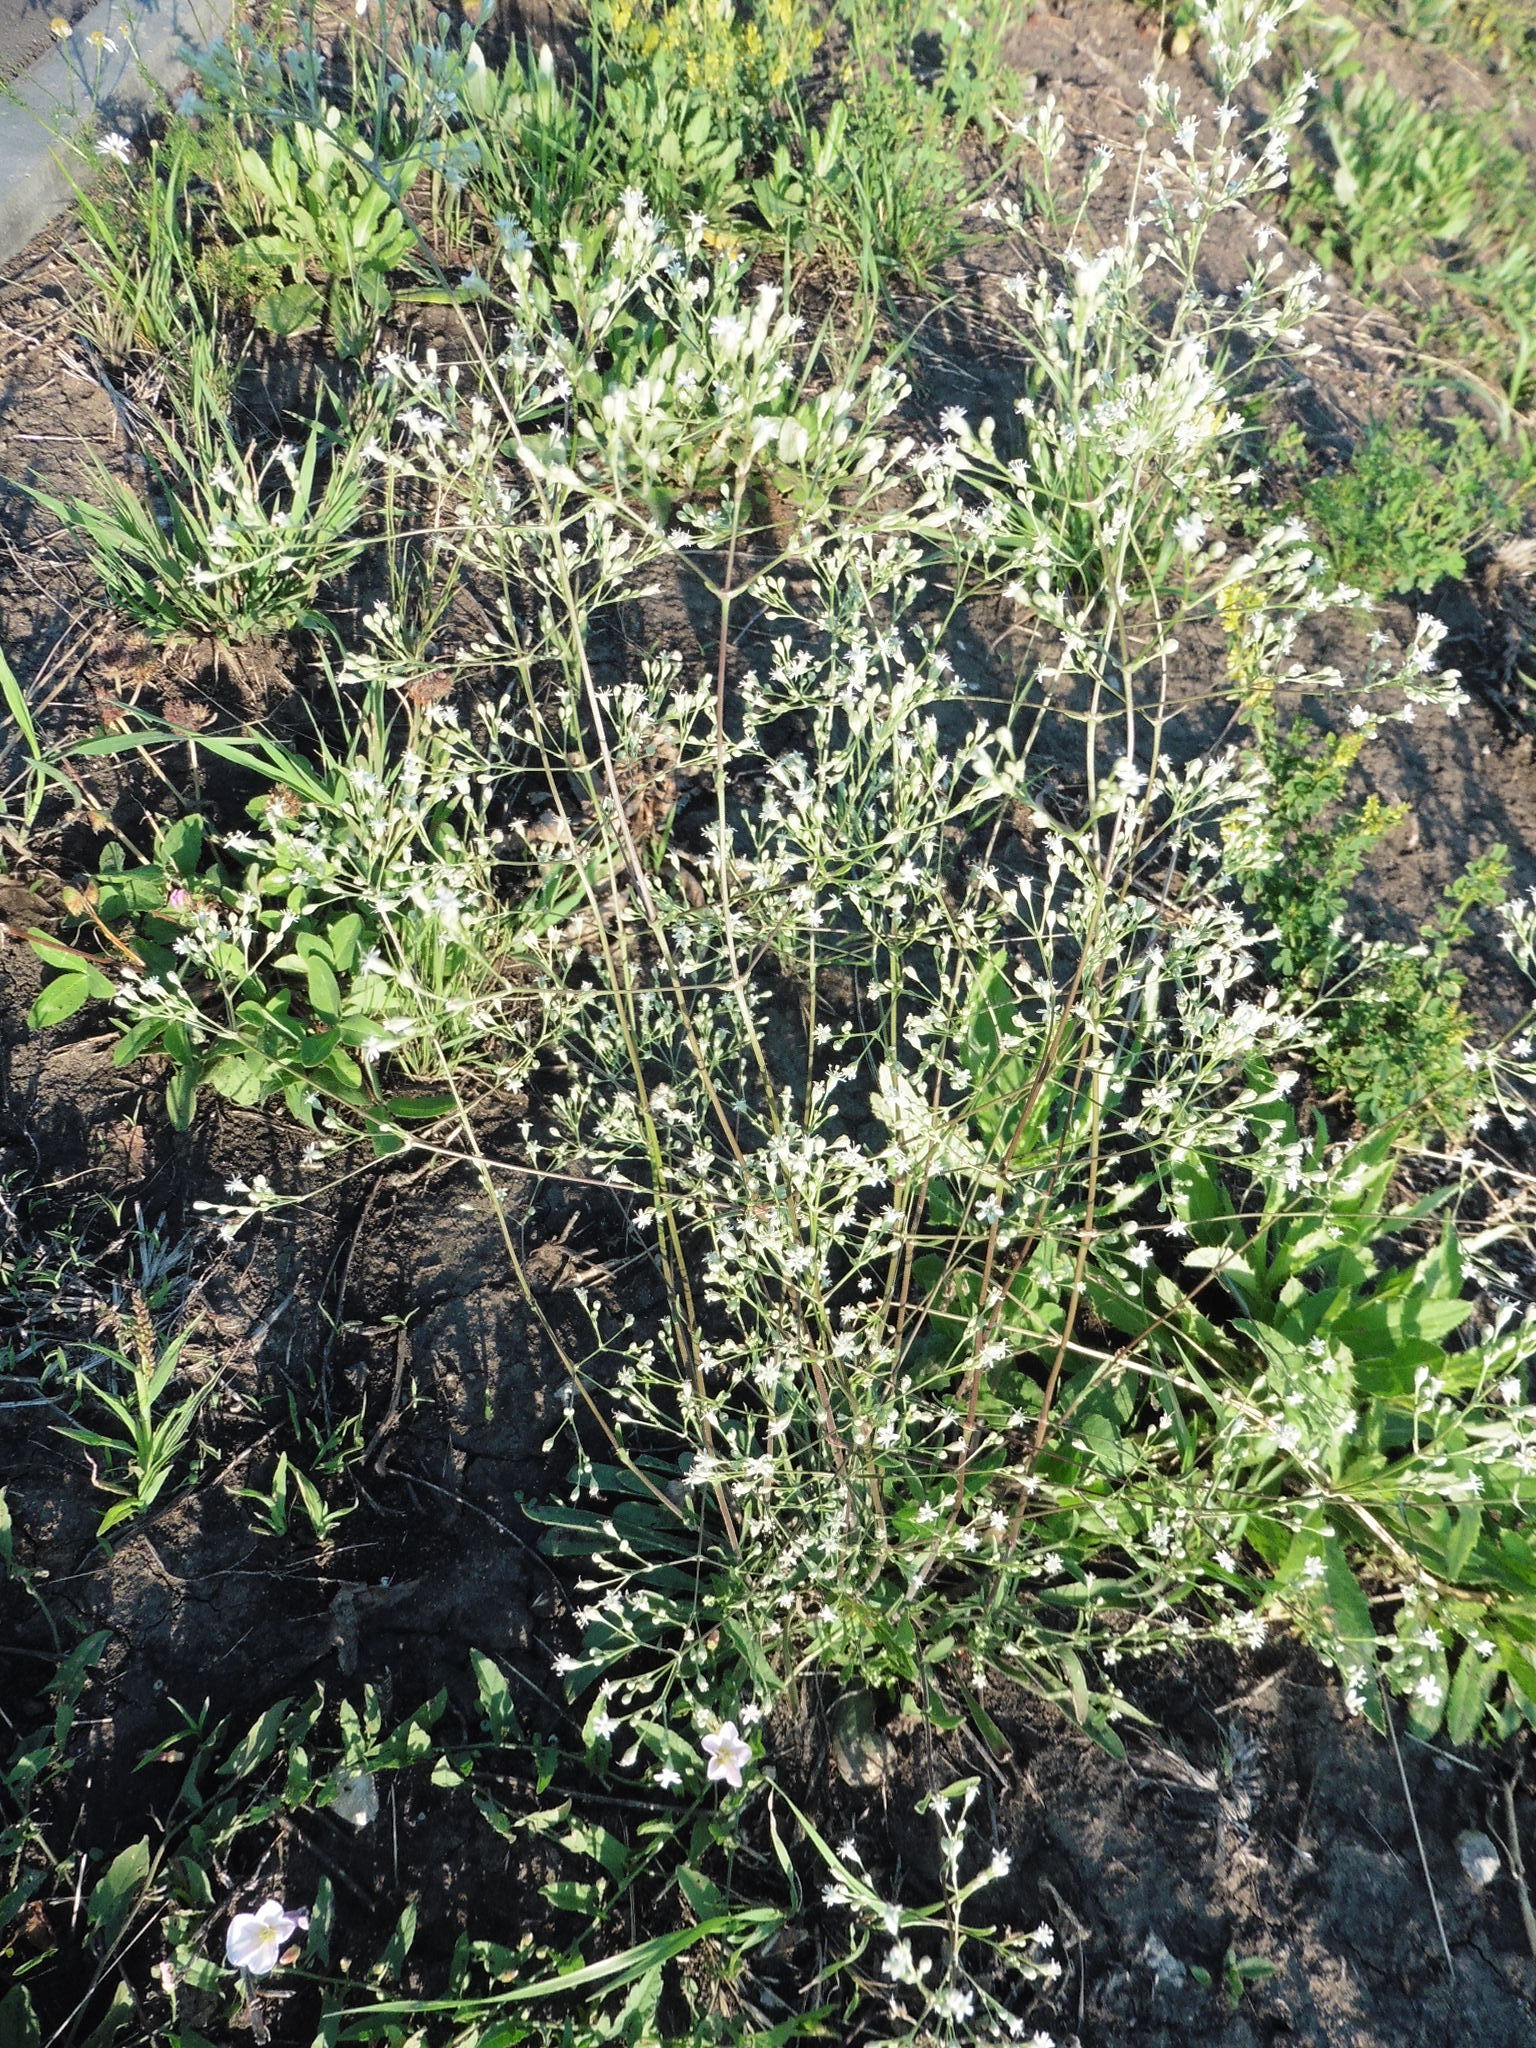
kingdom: Plantae
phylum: Tracheophyta
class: Magnoliopsida
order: Caryophyllales
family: Caryophyllaceae
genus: Silene
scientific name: Silene wolgensis
